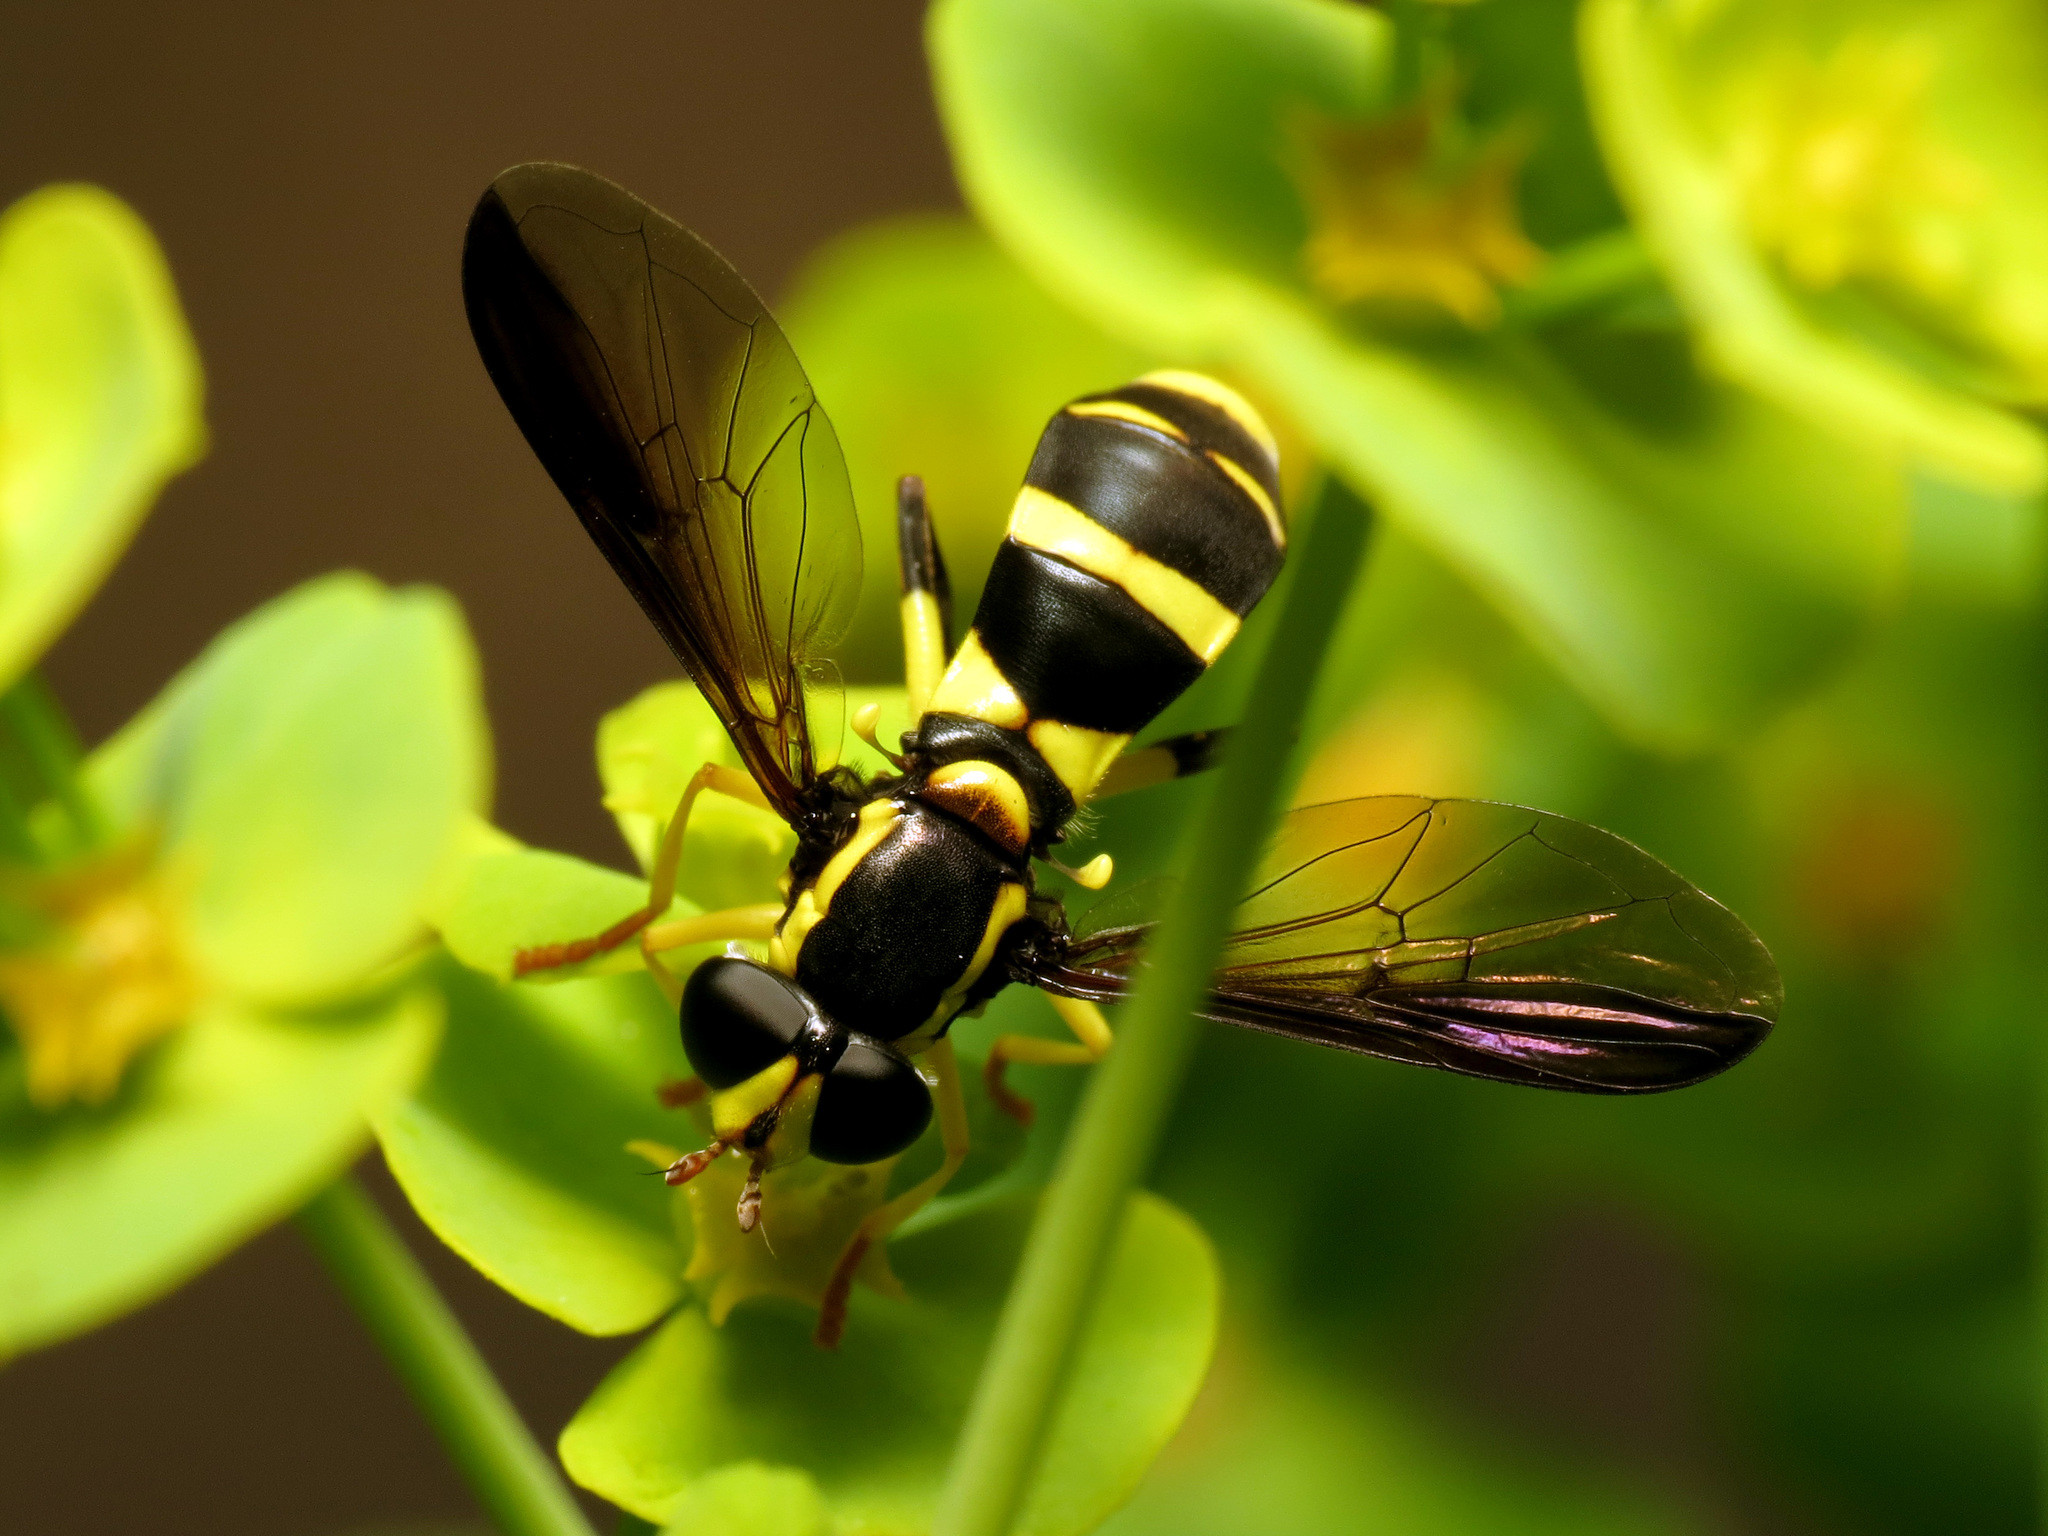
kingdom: Animalia
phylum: Arthropoda
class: Insecta
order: Diptera
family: Syrphidae
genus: Philhelius
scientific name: Philhelius marginalis
